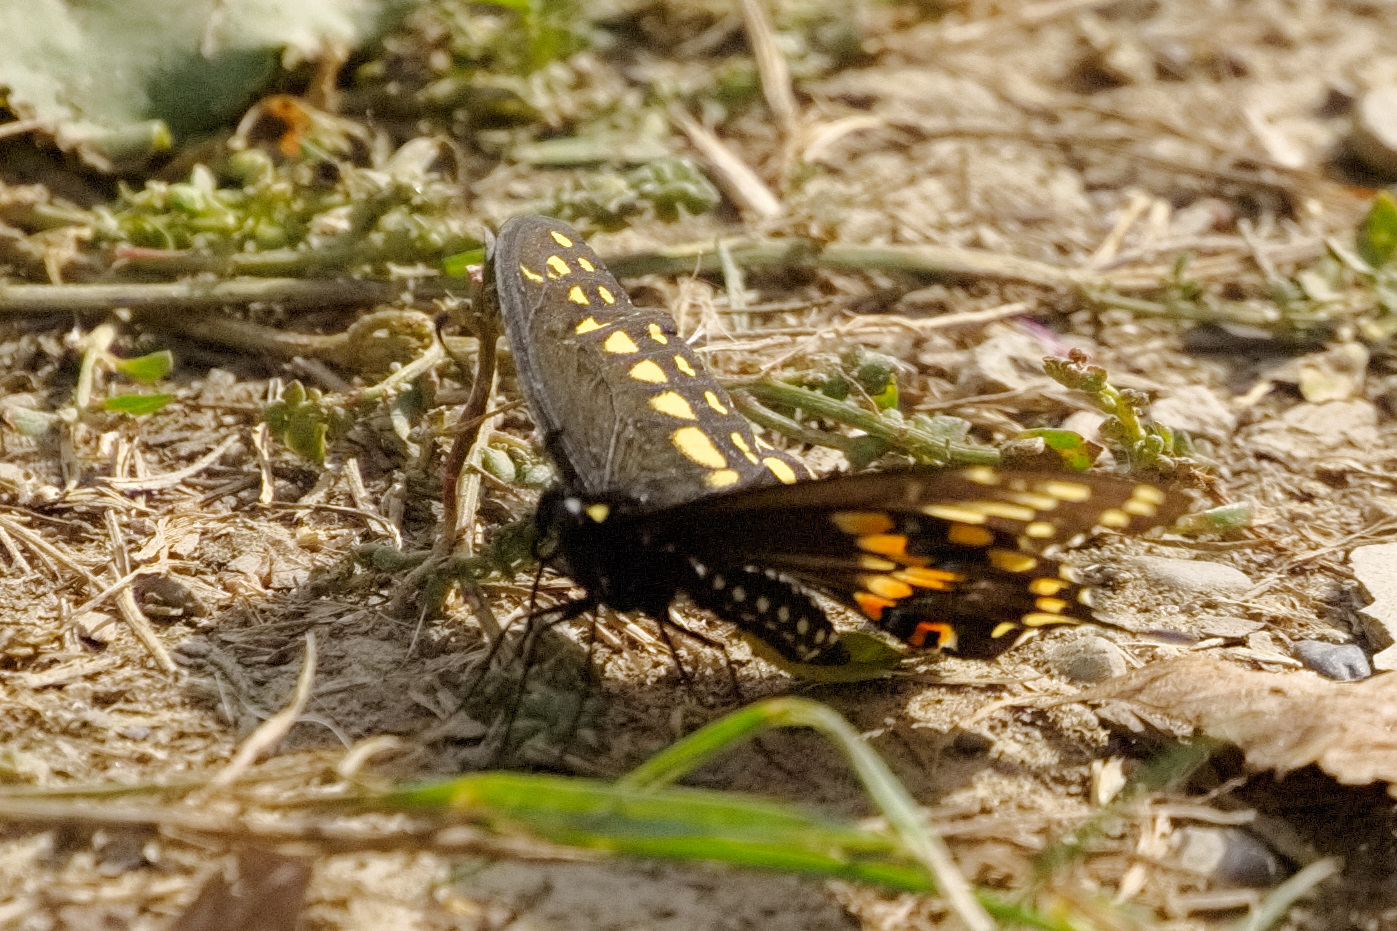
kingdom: Animalia
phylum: Arthropoda
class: Insecta
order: Lepidoptera
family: Papilionidae
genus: Papilio
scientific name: Papilio polyxenes
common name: Black swallowtail
